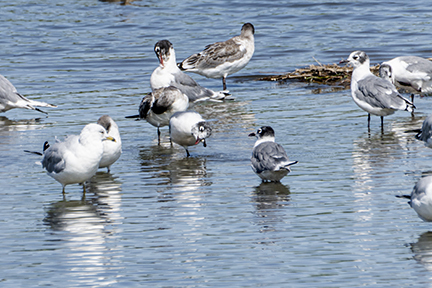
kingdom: Animalia
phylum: Chordata
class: Aves
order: Charadriiformes
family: Laridae
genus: Leucophaeus
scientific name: Leucophaeus pipixcan
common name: Franklin's gull
